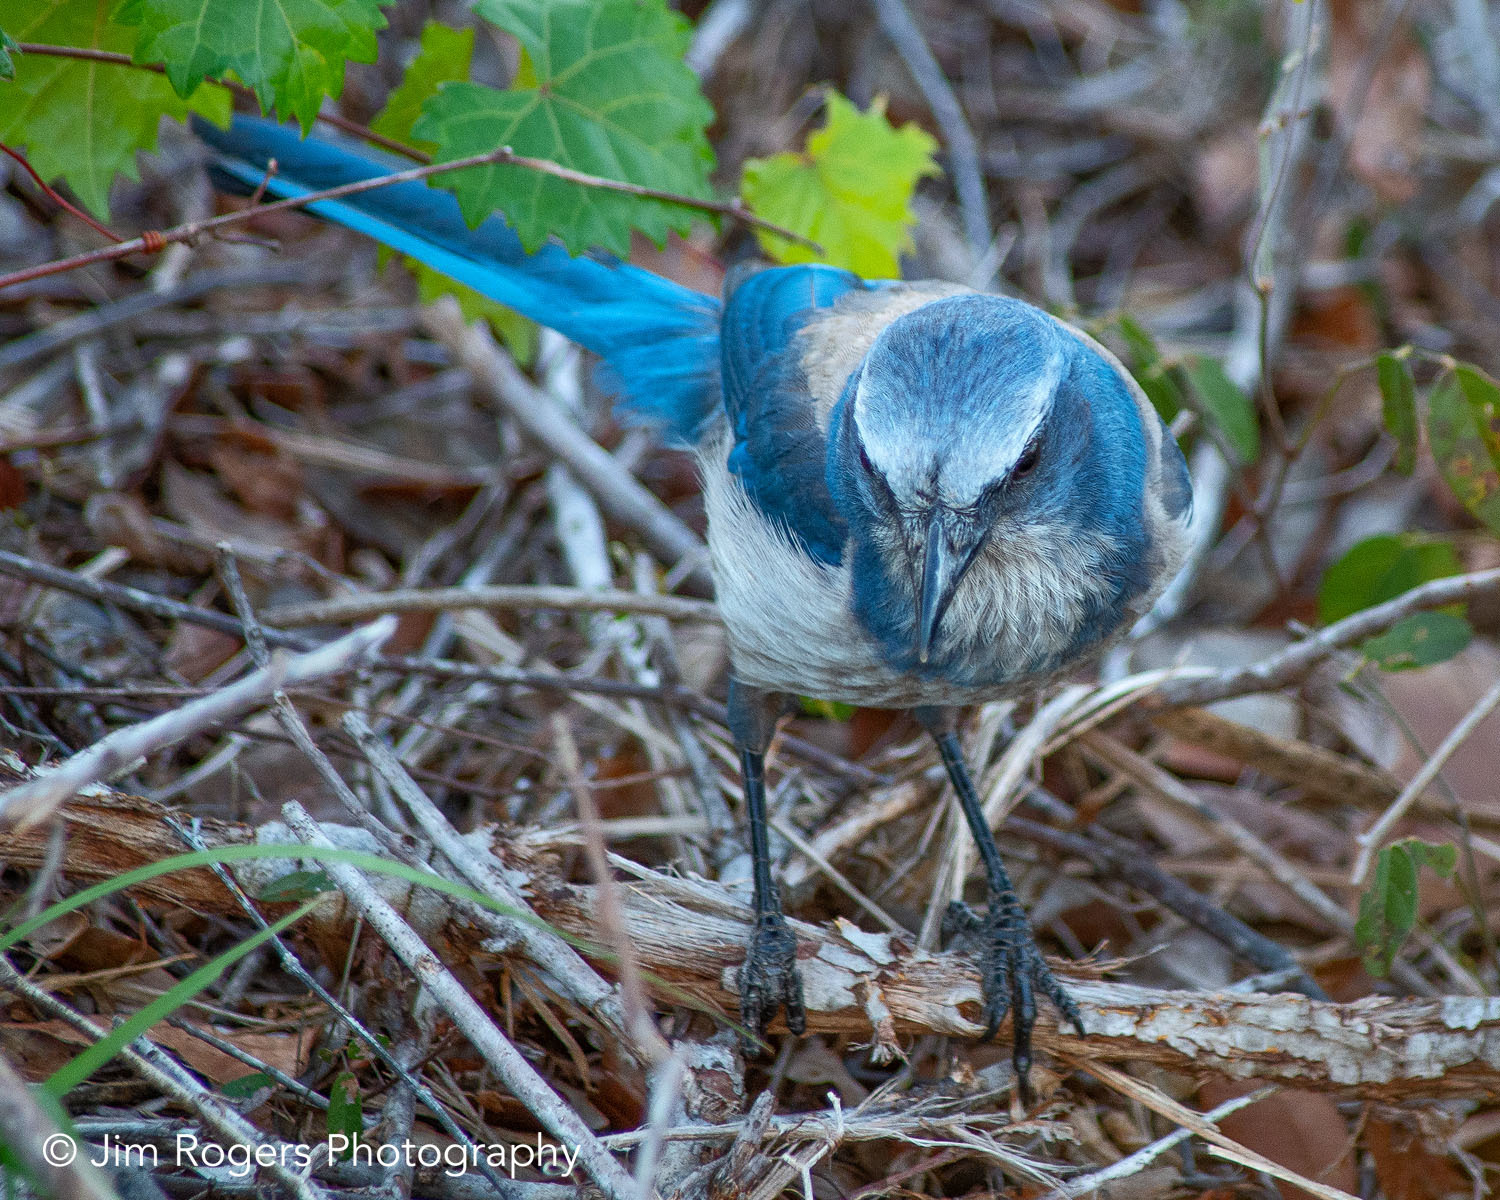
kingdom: Animalia
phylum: Chordata
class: Aves
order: Passeriformes
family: Corvidae
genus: Aphelocoma
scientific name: Aphelocoma coerulescens
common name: Florida scrub jay
